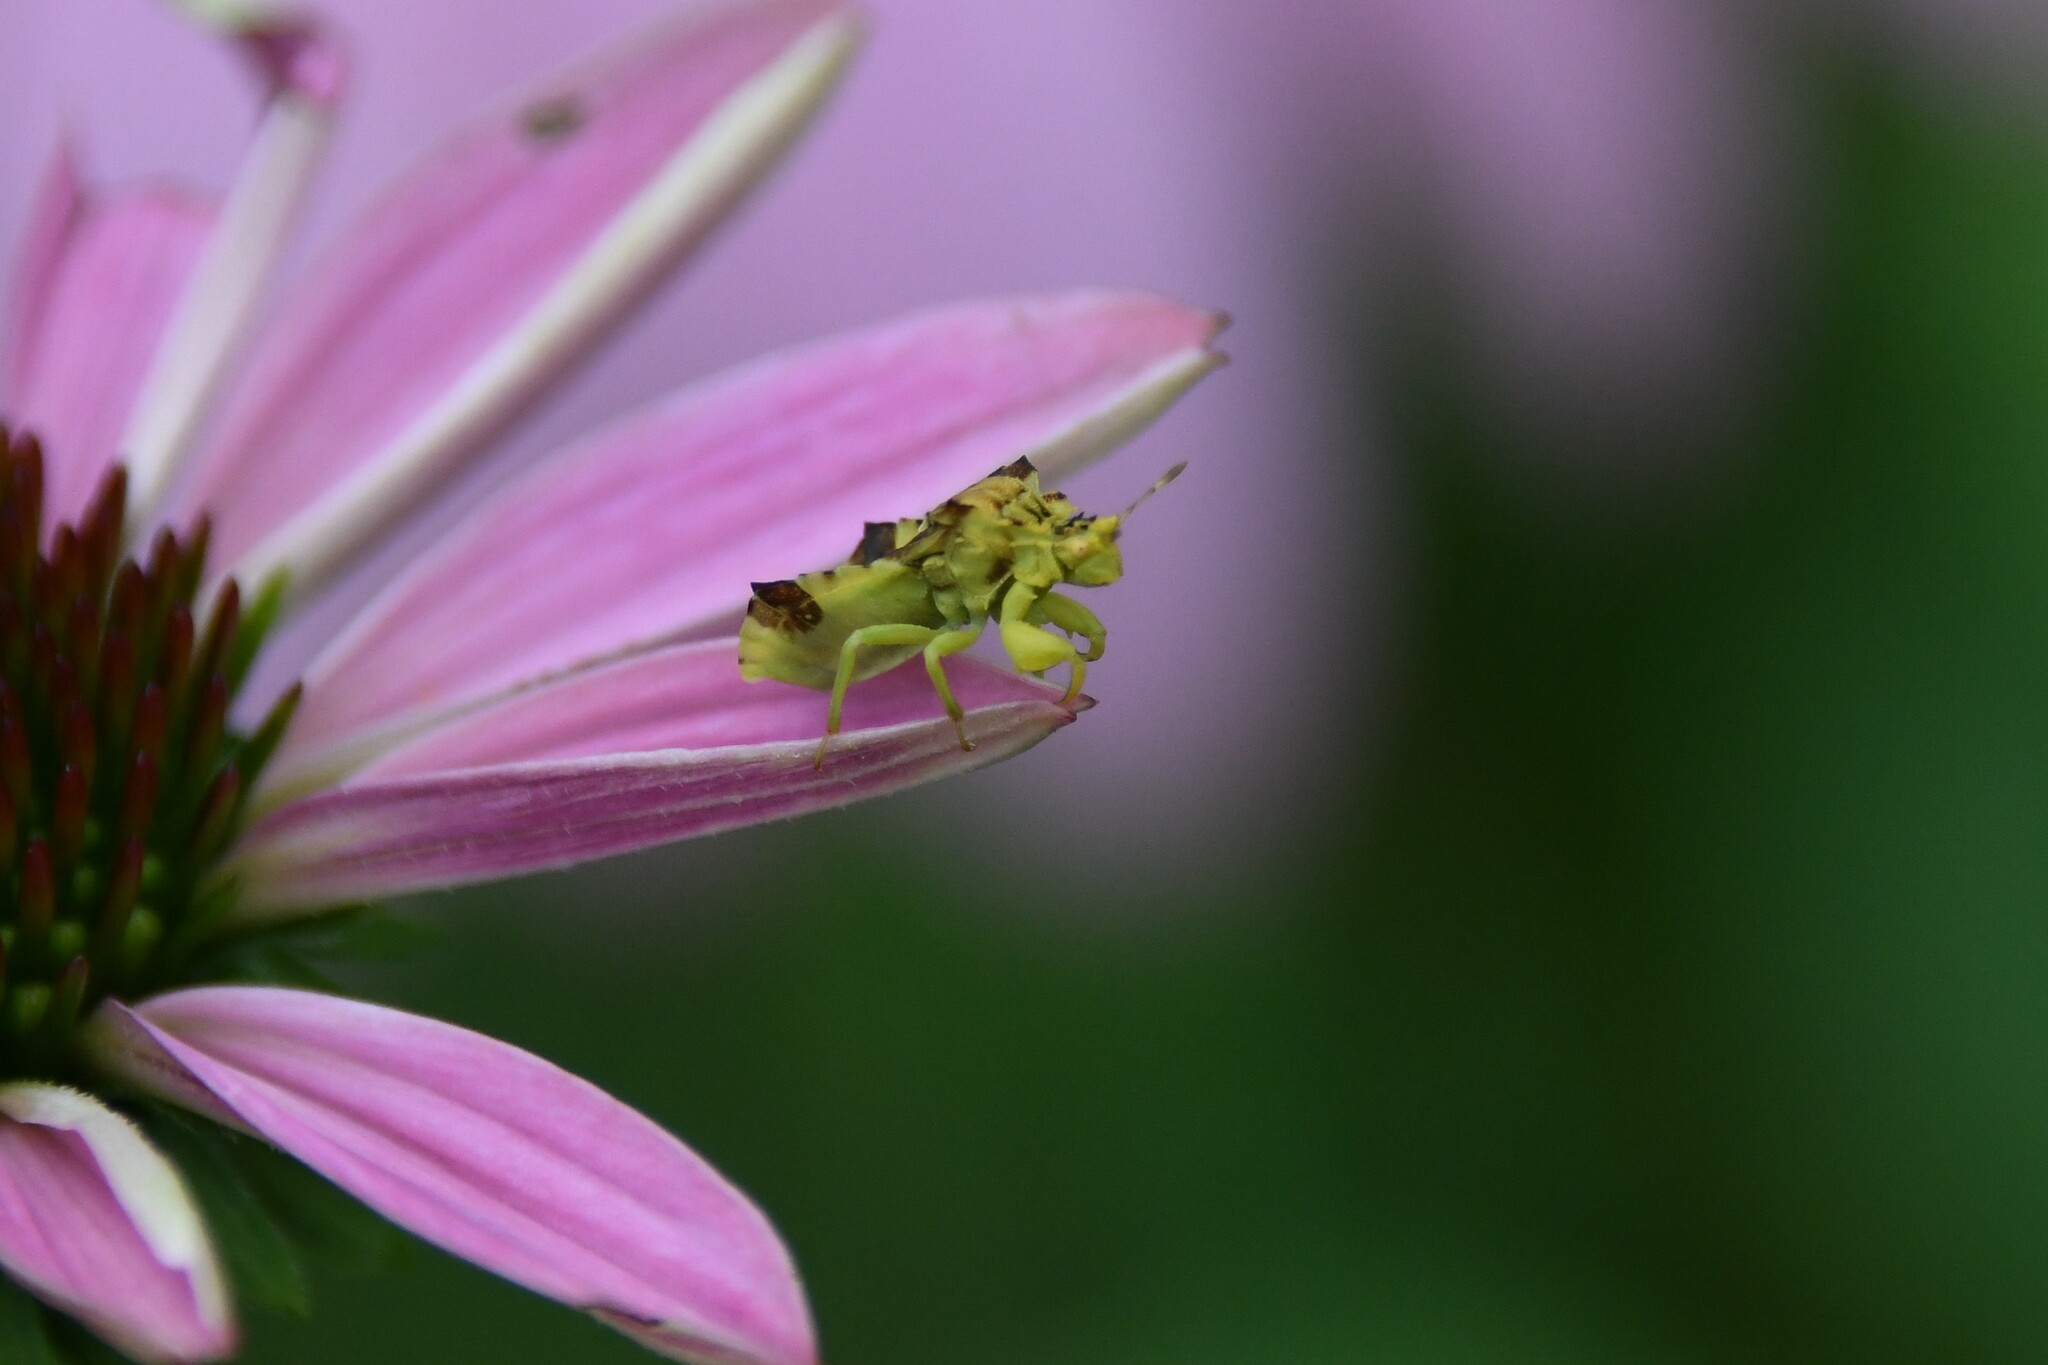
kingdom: Animalia
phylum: Arthropoda
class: Insecta
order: Hemiptera
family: Reduviidae
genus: Phymata
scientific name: Phymata americana
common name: Jagged ambush bug
